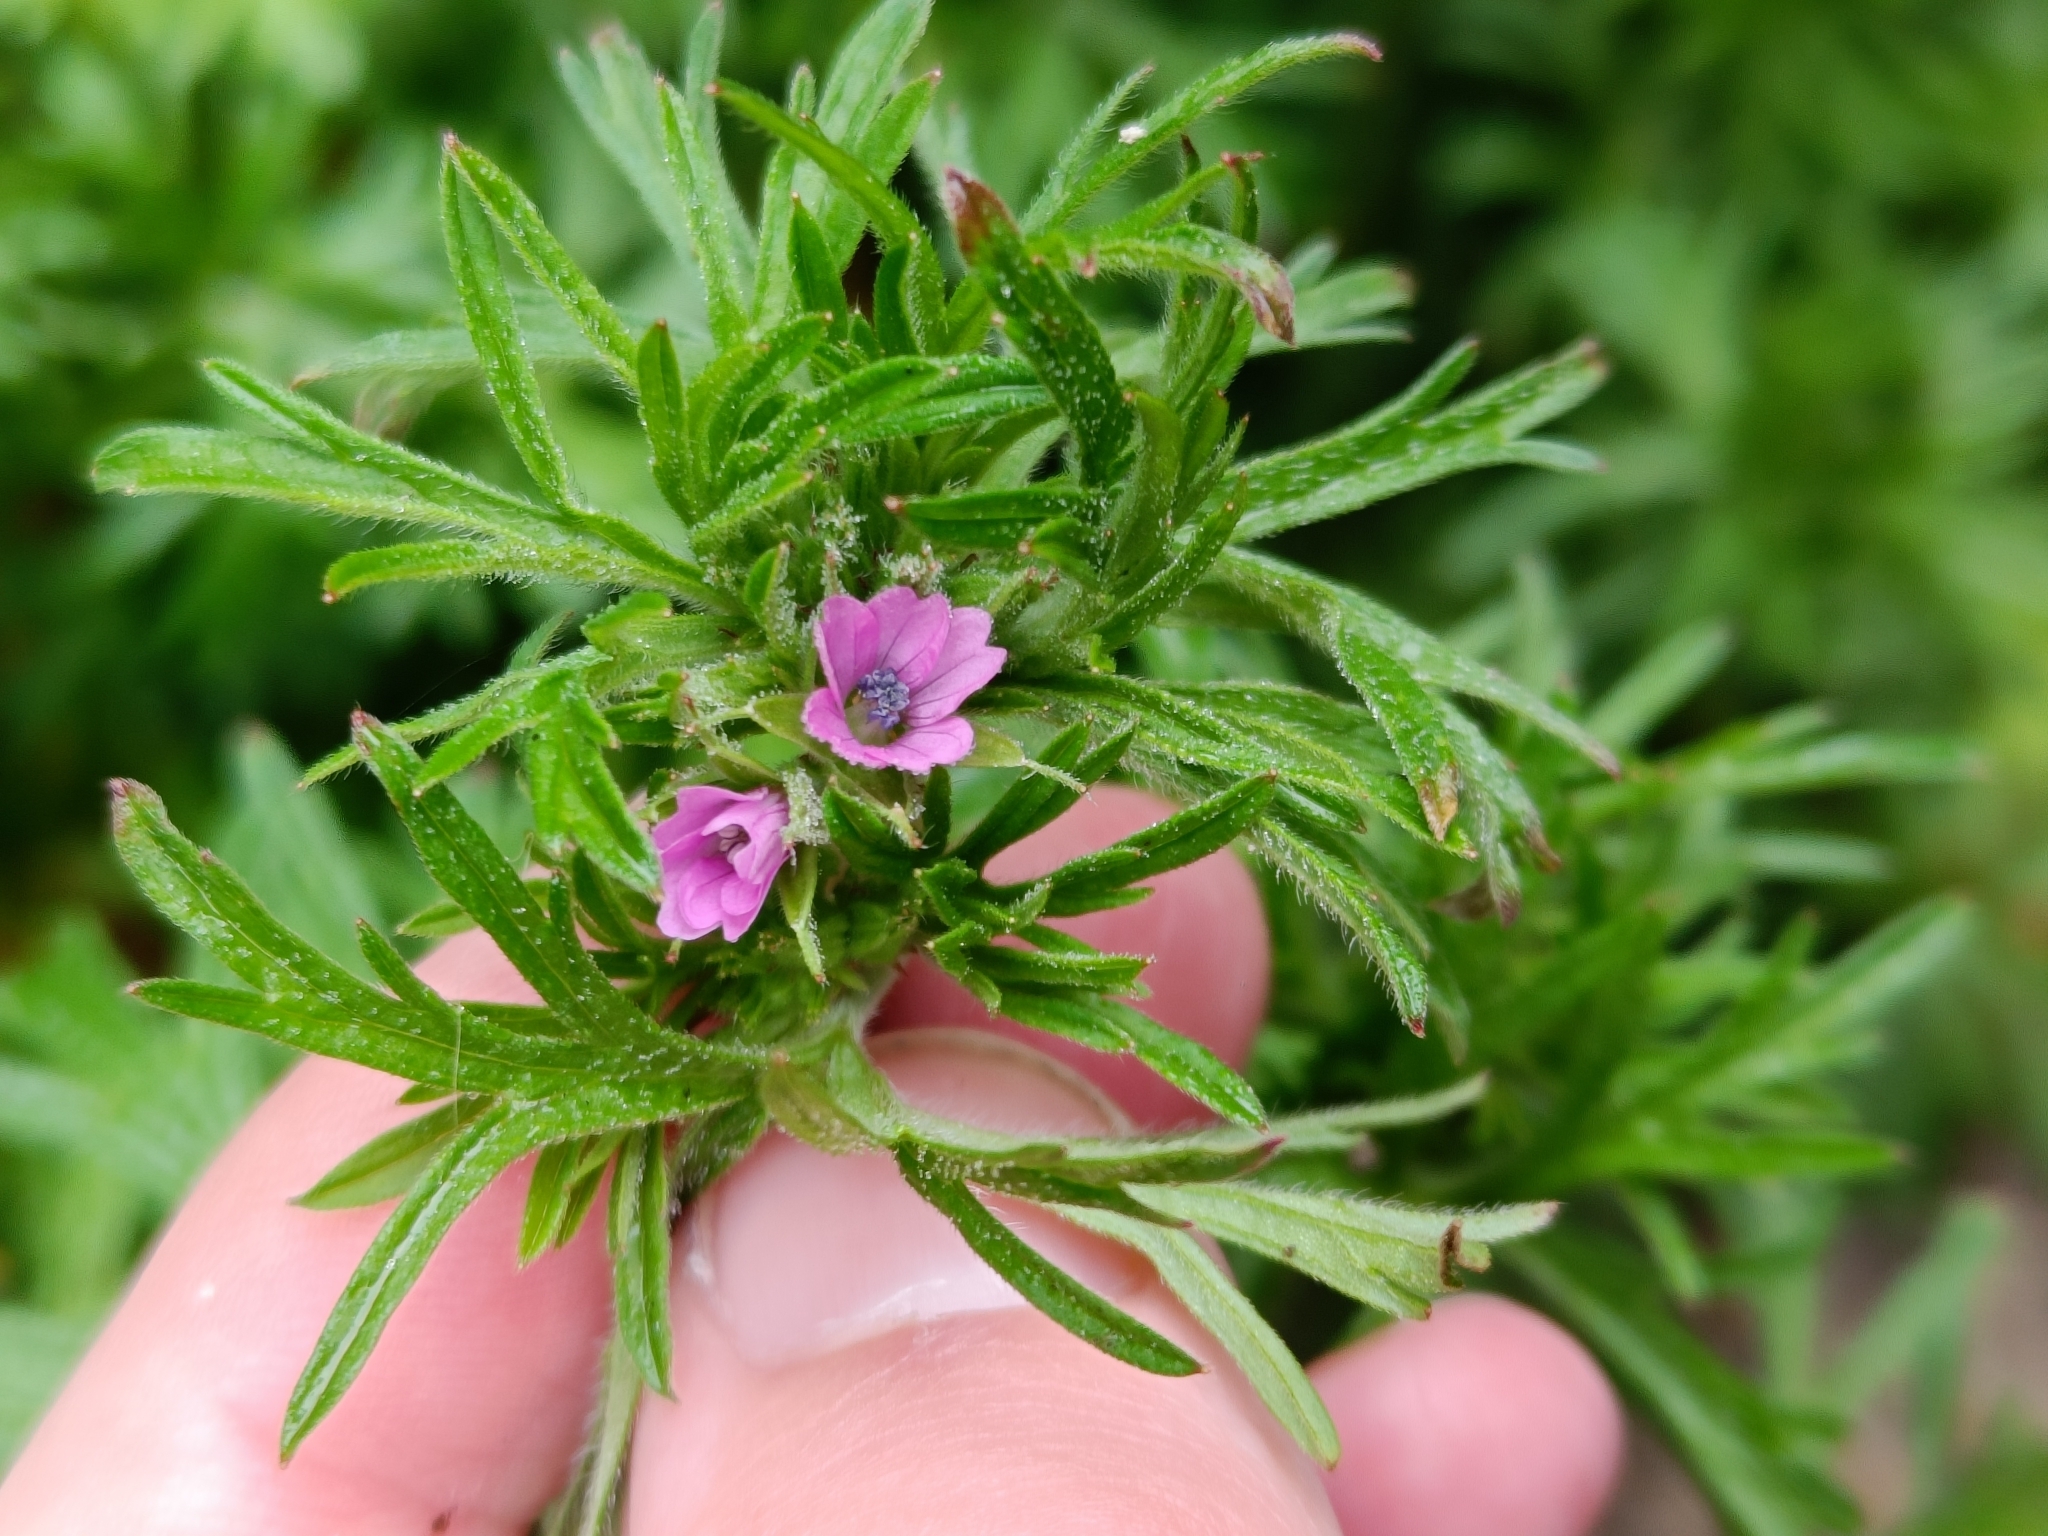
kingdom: Plantae
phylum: Tracheophyta
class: Magnoliopsida
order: Geraniales
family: Geraniaceae
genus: Geranium
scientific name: Geranium dissectum
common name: Cut-leaved crane's-bill
